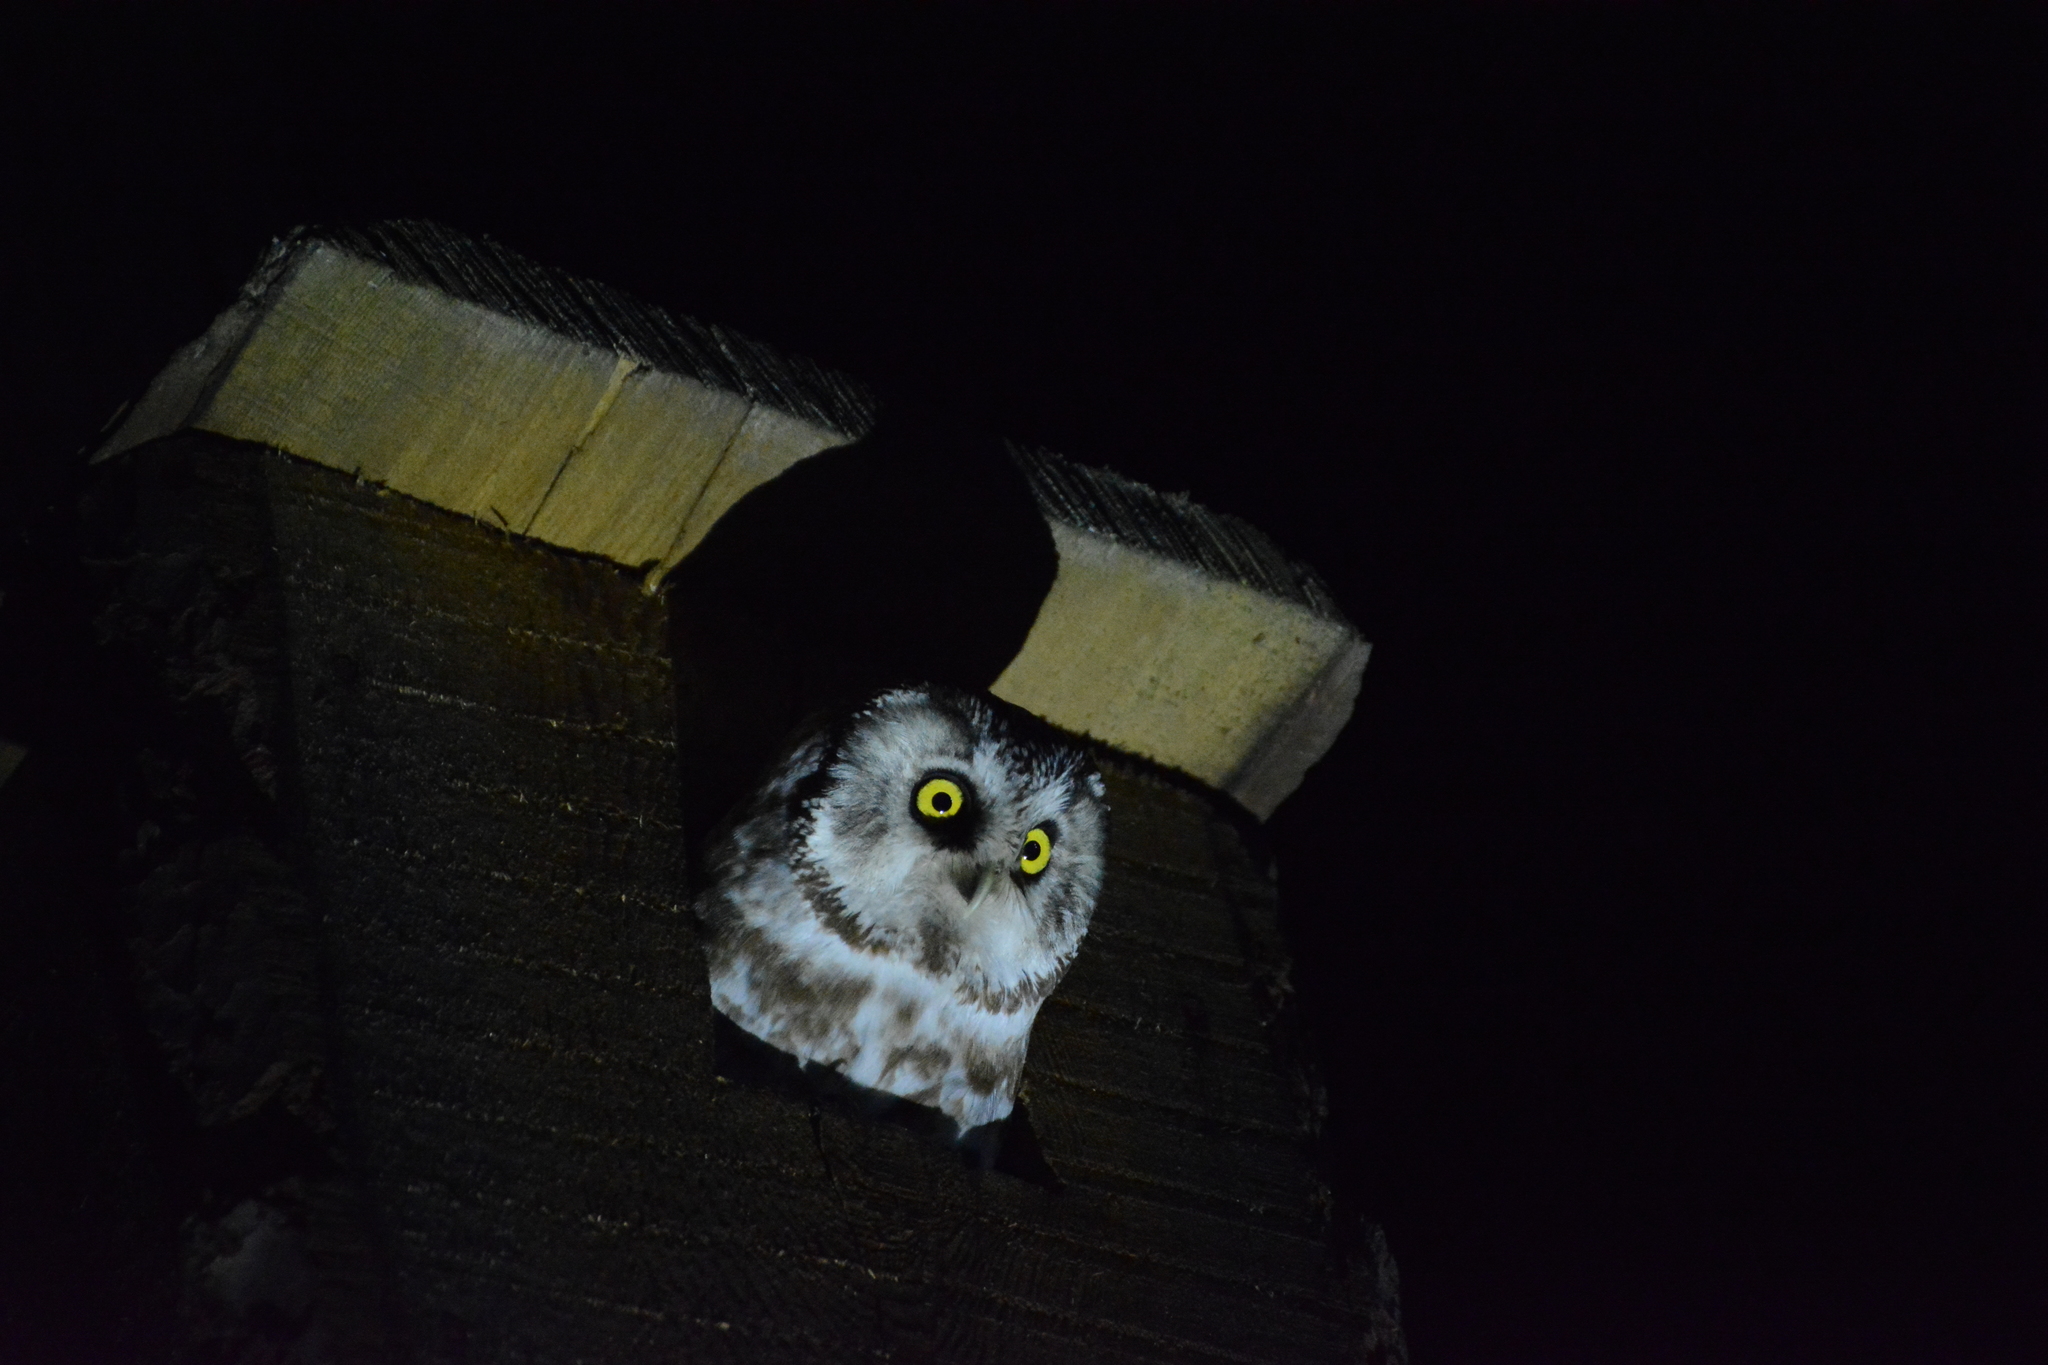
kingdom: Animalia
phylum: Chordata
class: Aves
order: Strigiformes
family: Strigidae
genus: Aegolius
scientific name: Aegolius funereus
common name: Boreal owl
